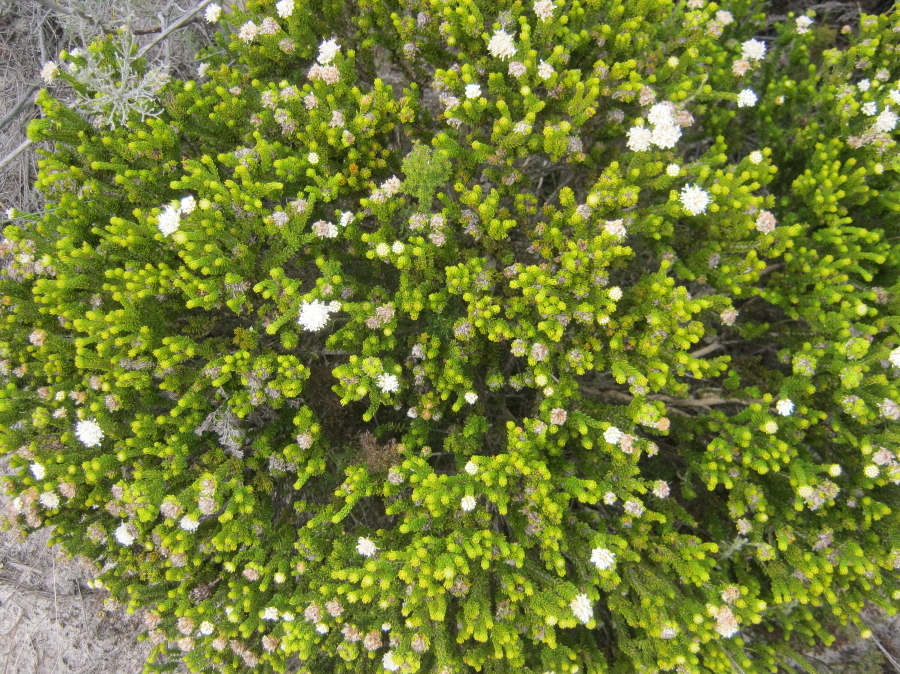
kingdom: Plantae
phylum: Tracheophyta
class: Magnoliopsida
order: Sapindales
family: Rutaceae
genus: Agathosma
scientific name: Agathosma eriantha
